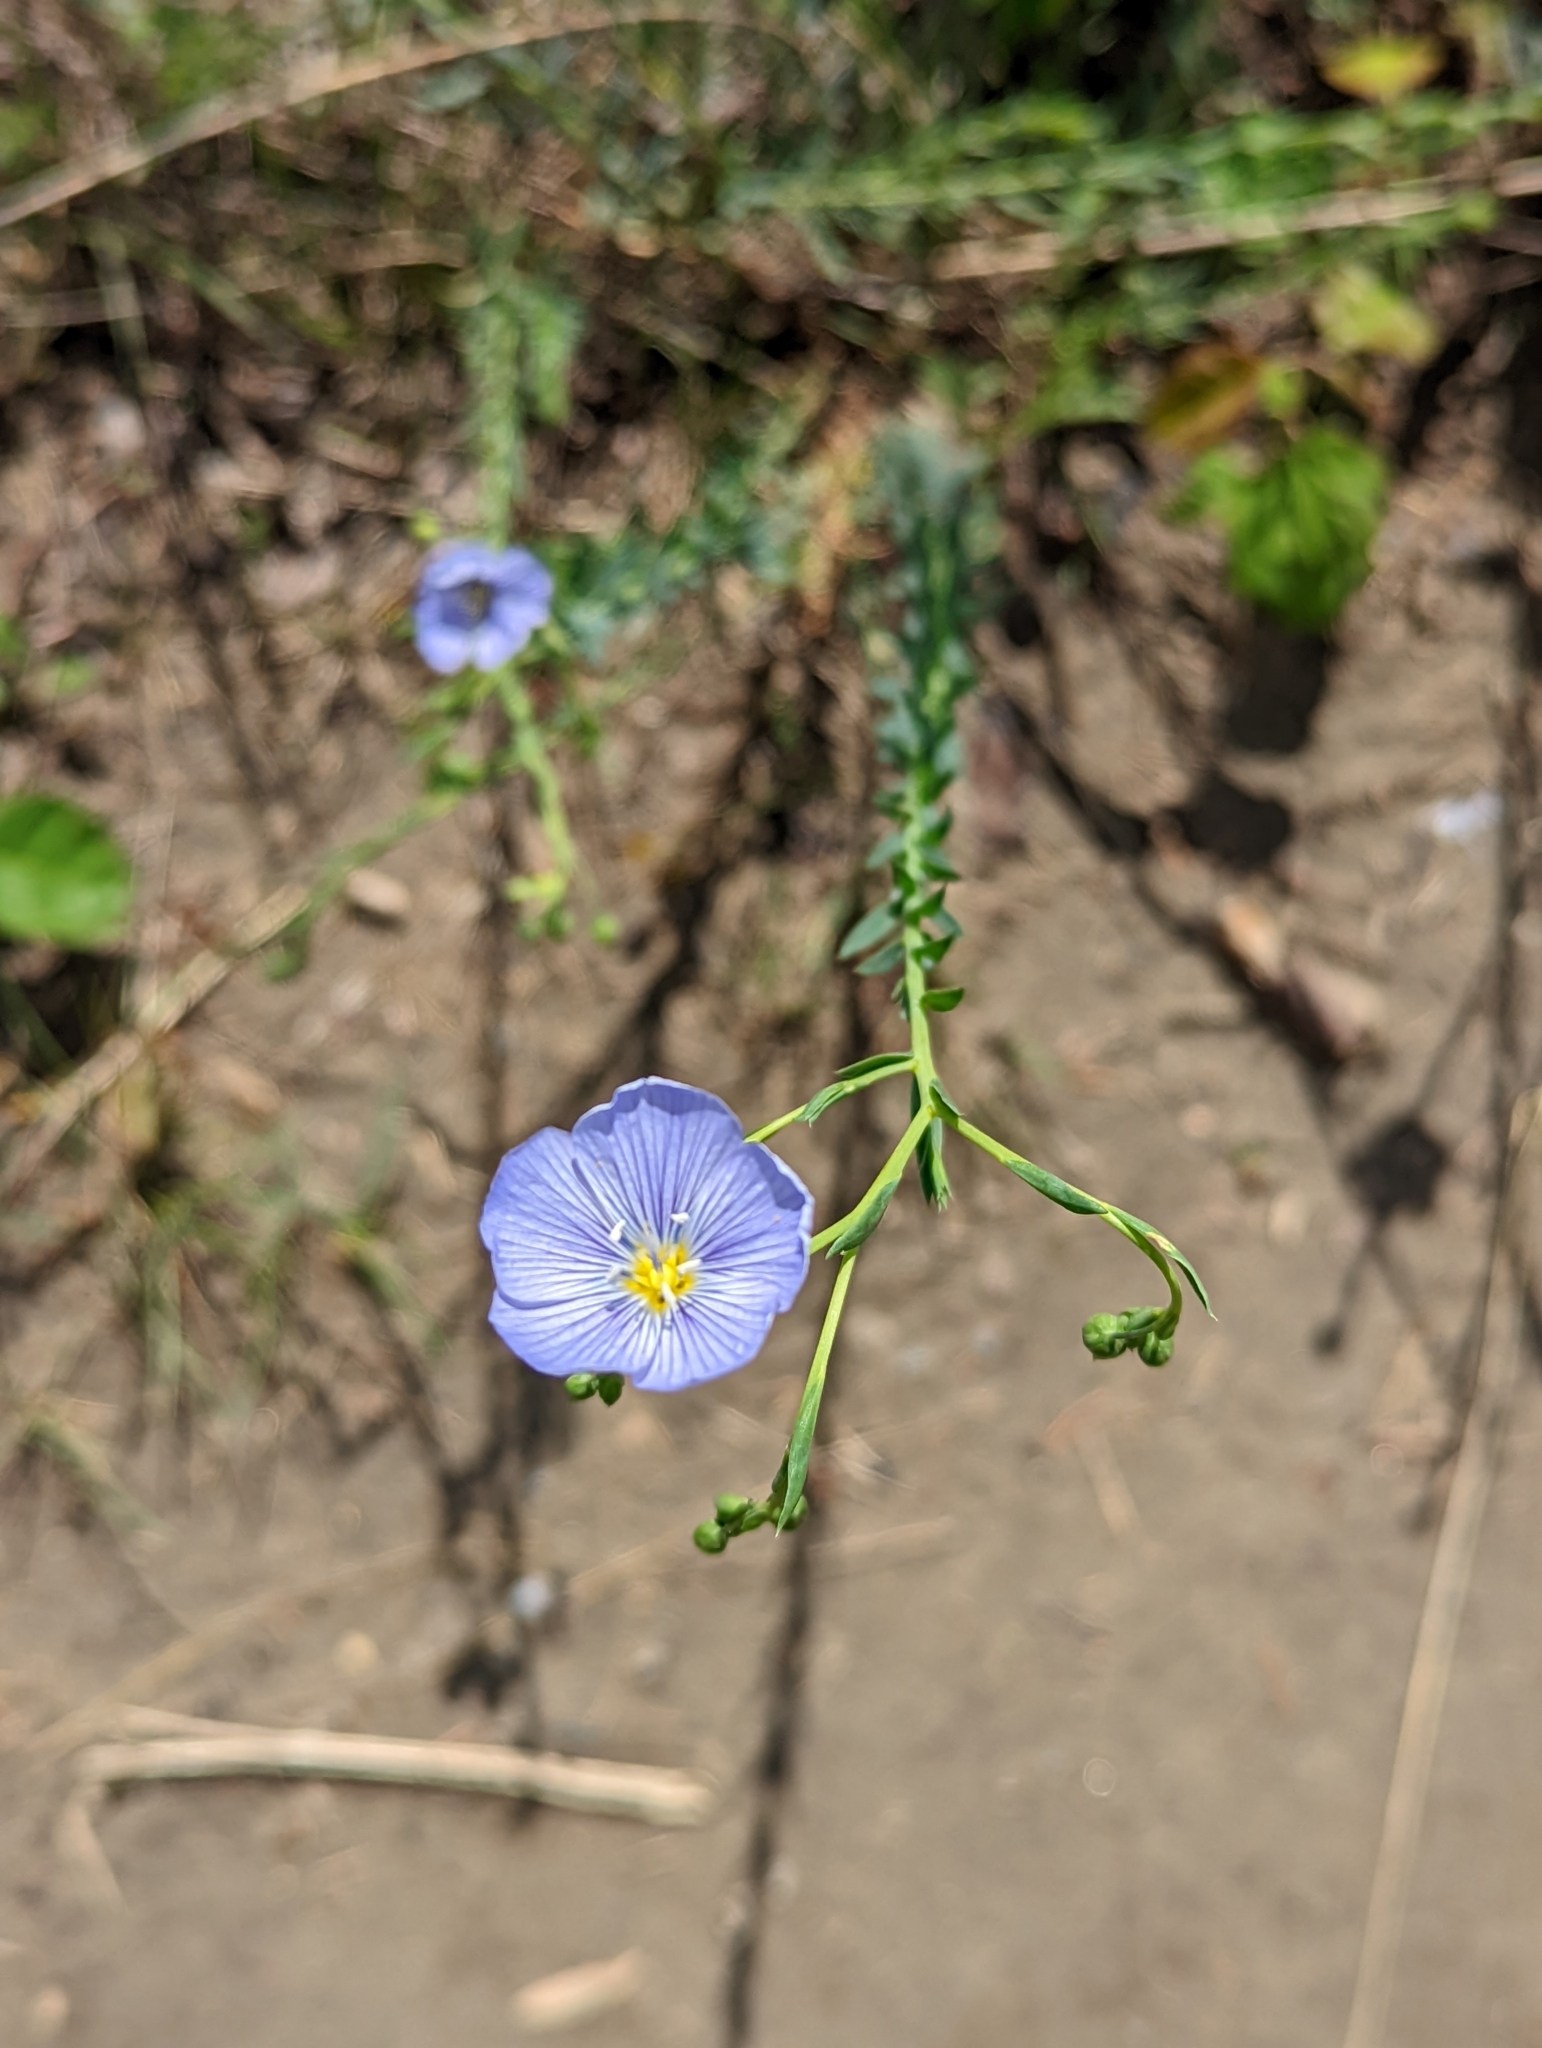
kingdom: Plantae
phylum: Tracheophyta
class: Magnoliopsida
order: Malpighiales
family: Linaceae
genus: Linum
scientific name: Linum lewisii
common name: Prairie flax
